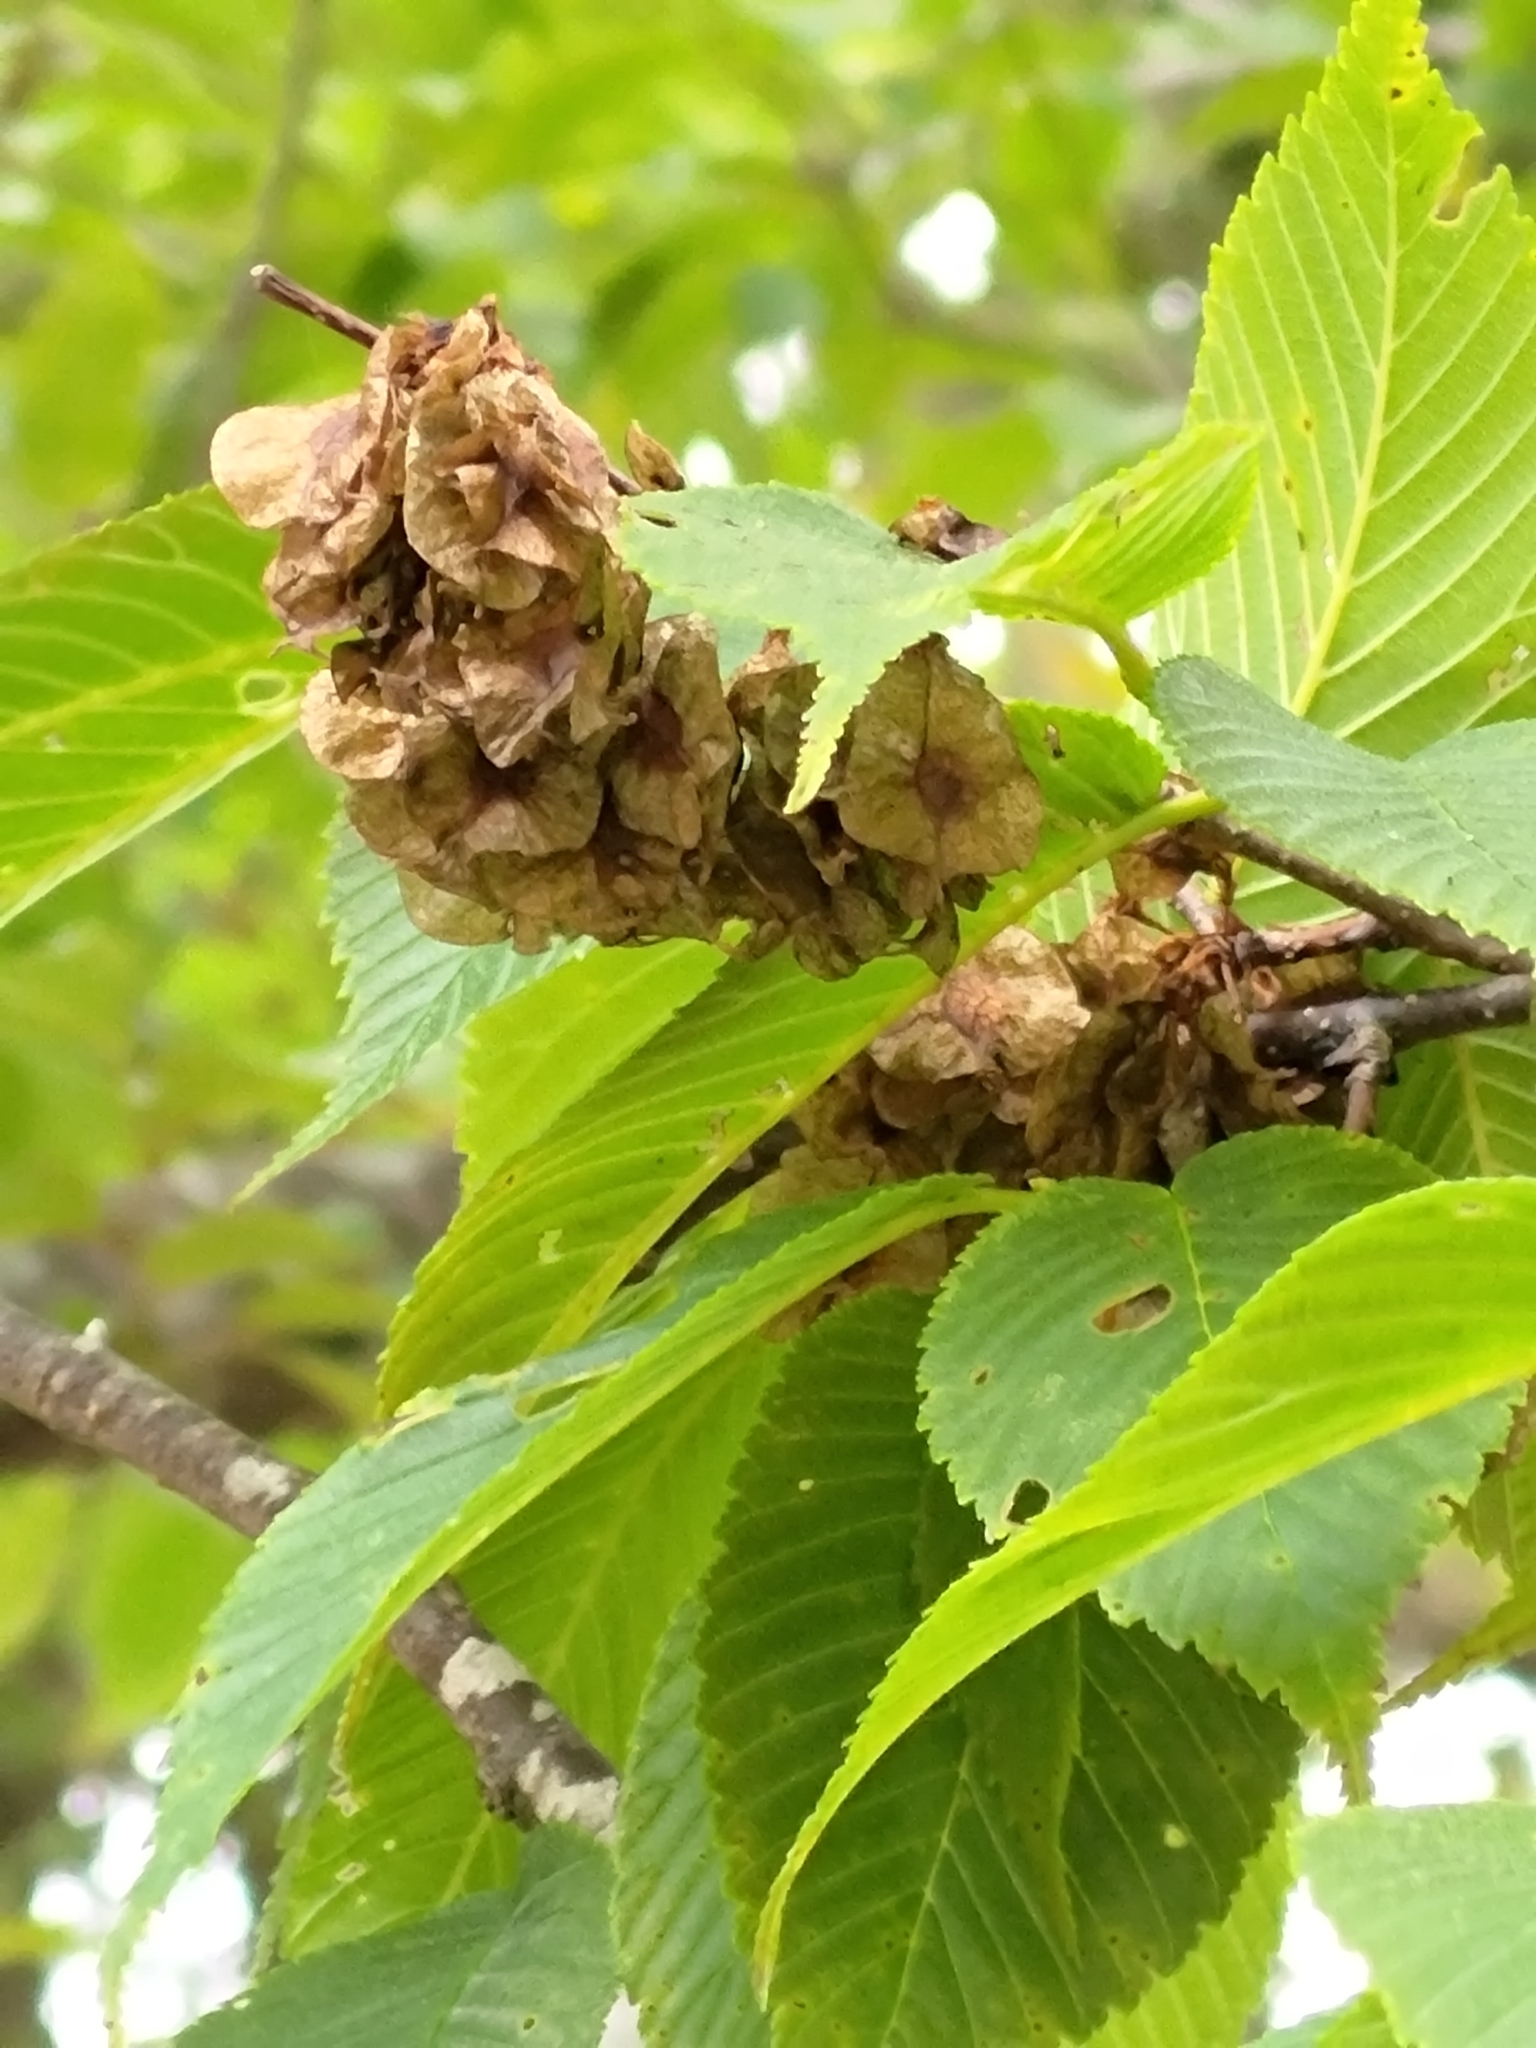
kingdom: Plantae
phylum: Tracheophyta
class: Magnoliopsida
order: Rosales
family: Ulmaceae
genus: Ulmus
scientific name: Ulmus uyematsui
